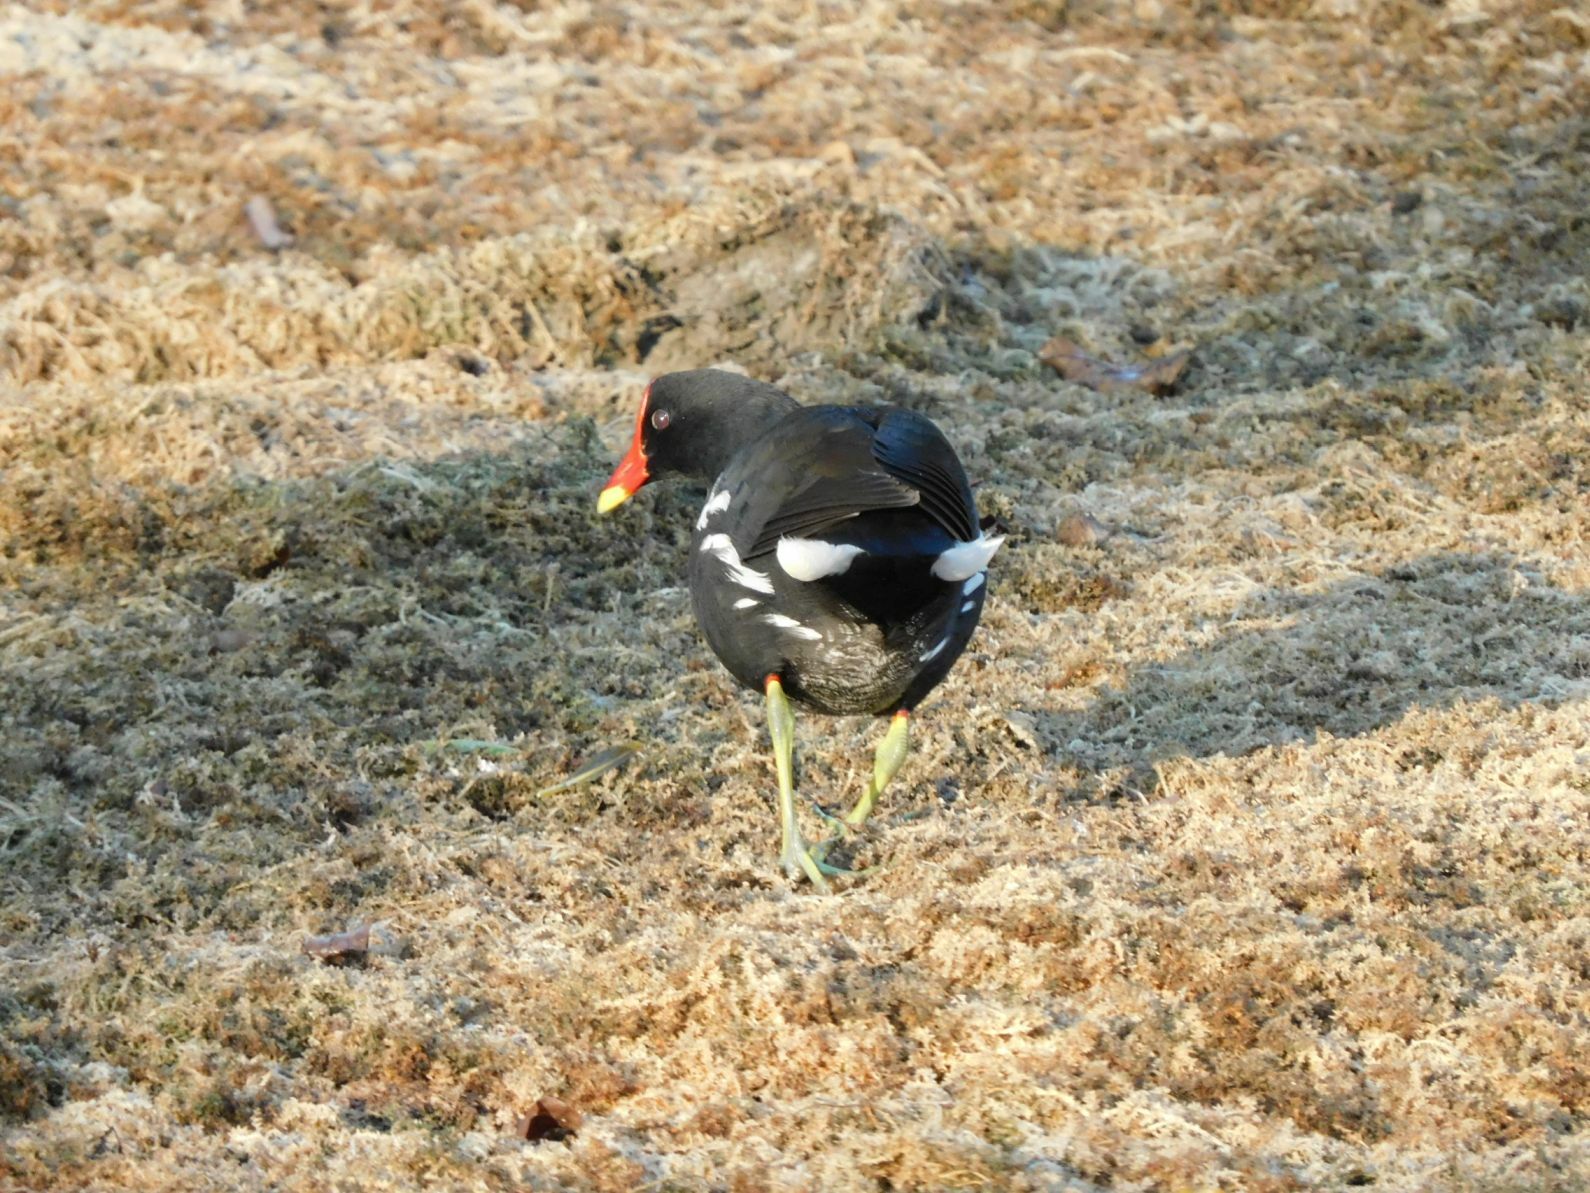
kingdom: Animalia
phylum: Chordata
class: Aves
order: Gruiformes
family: Rallidae
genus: Gallinula
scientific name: Gallinula chloropus
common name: Common moorhen
